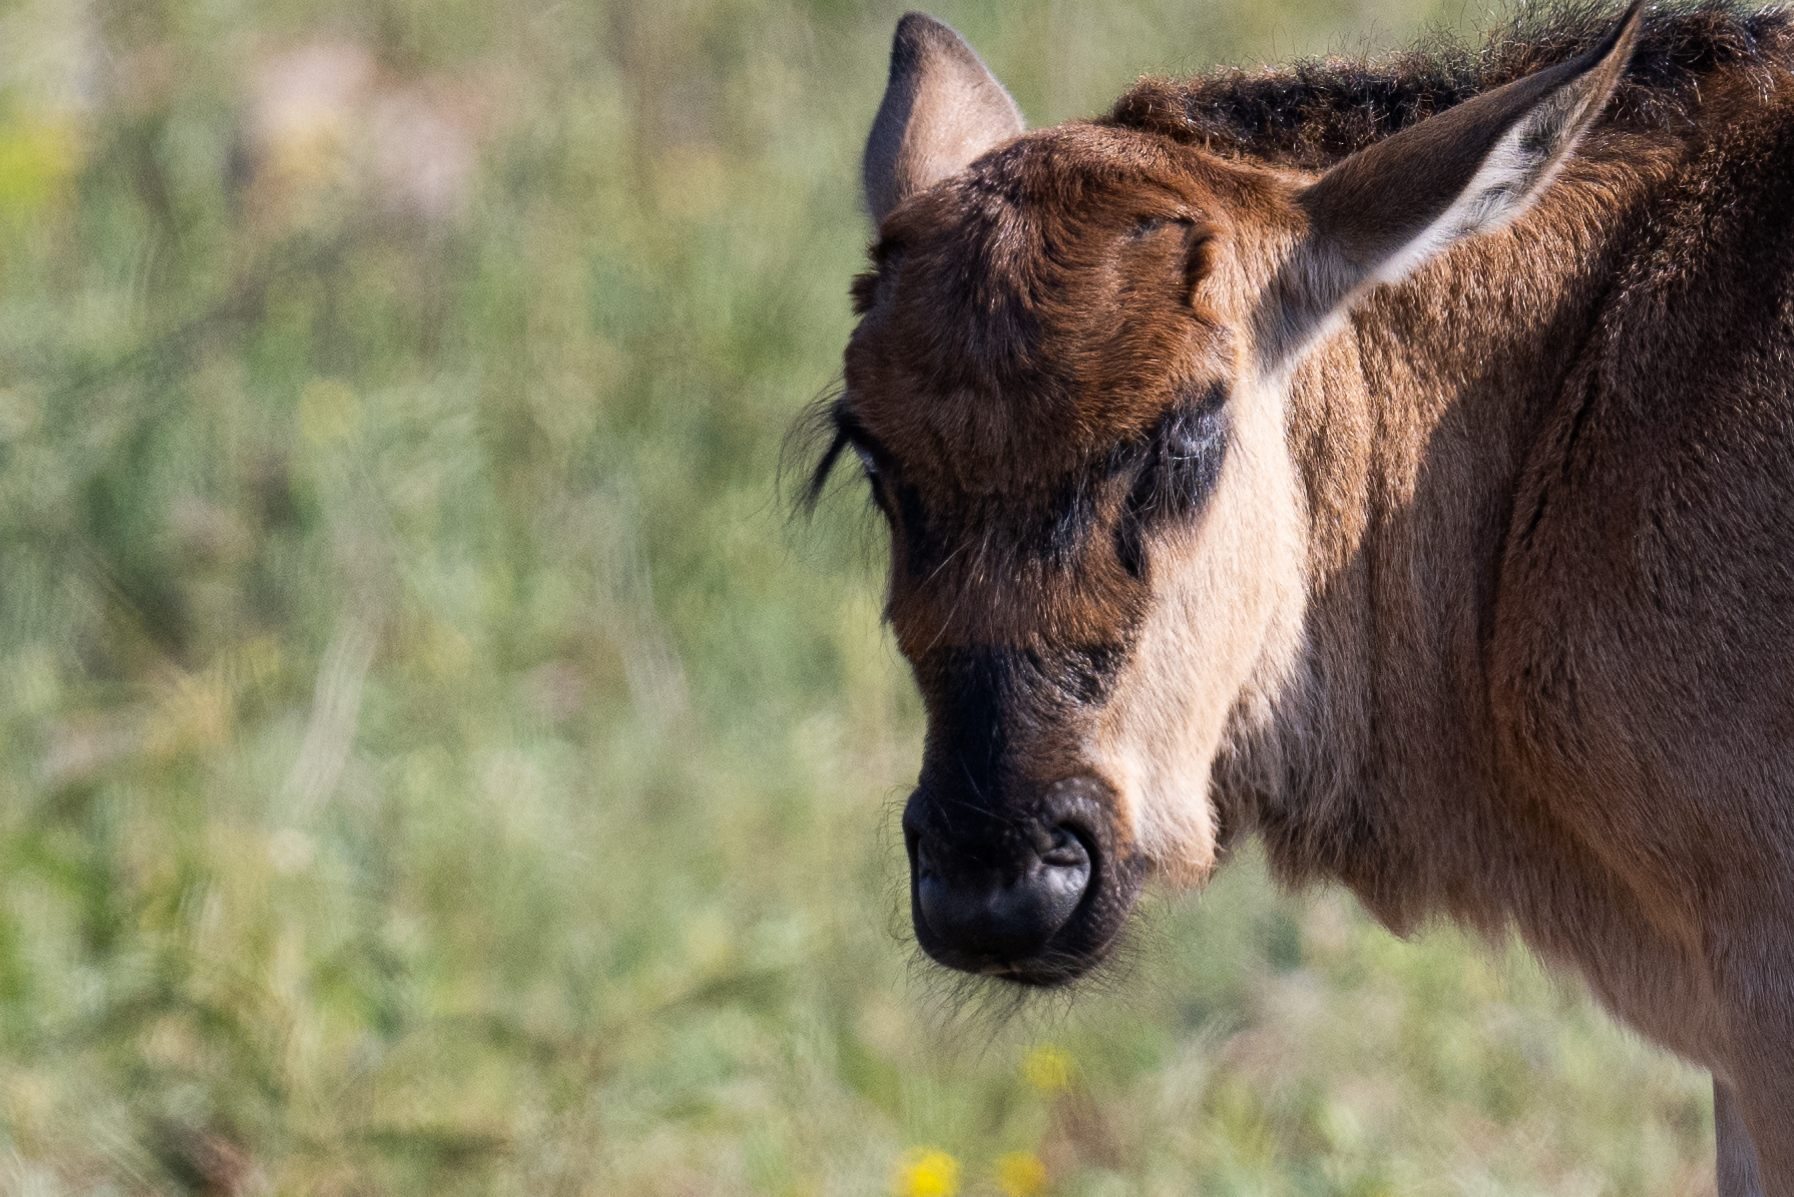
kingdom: Animalia
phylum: Chordata
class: Mammalia
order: Artiodactyla
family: Bovidae
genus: Connochaetes
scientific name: Connochaetes taurinus
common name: Blue wildebeest
